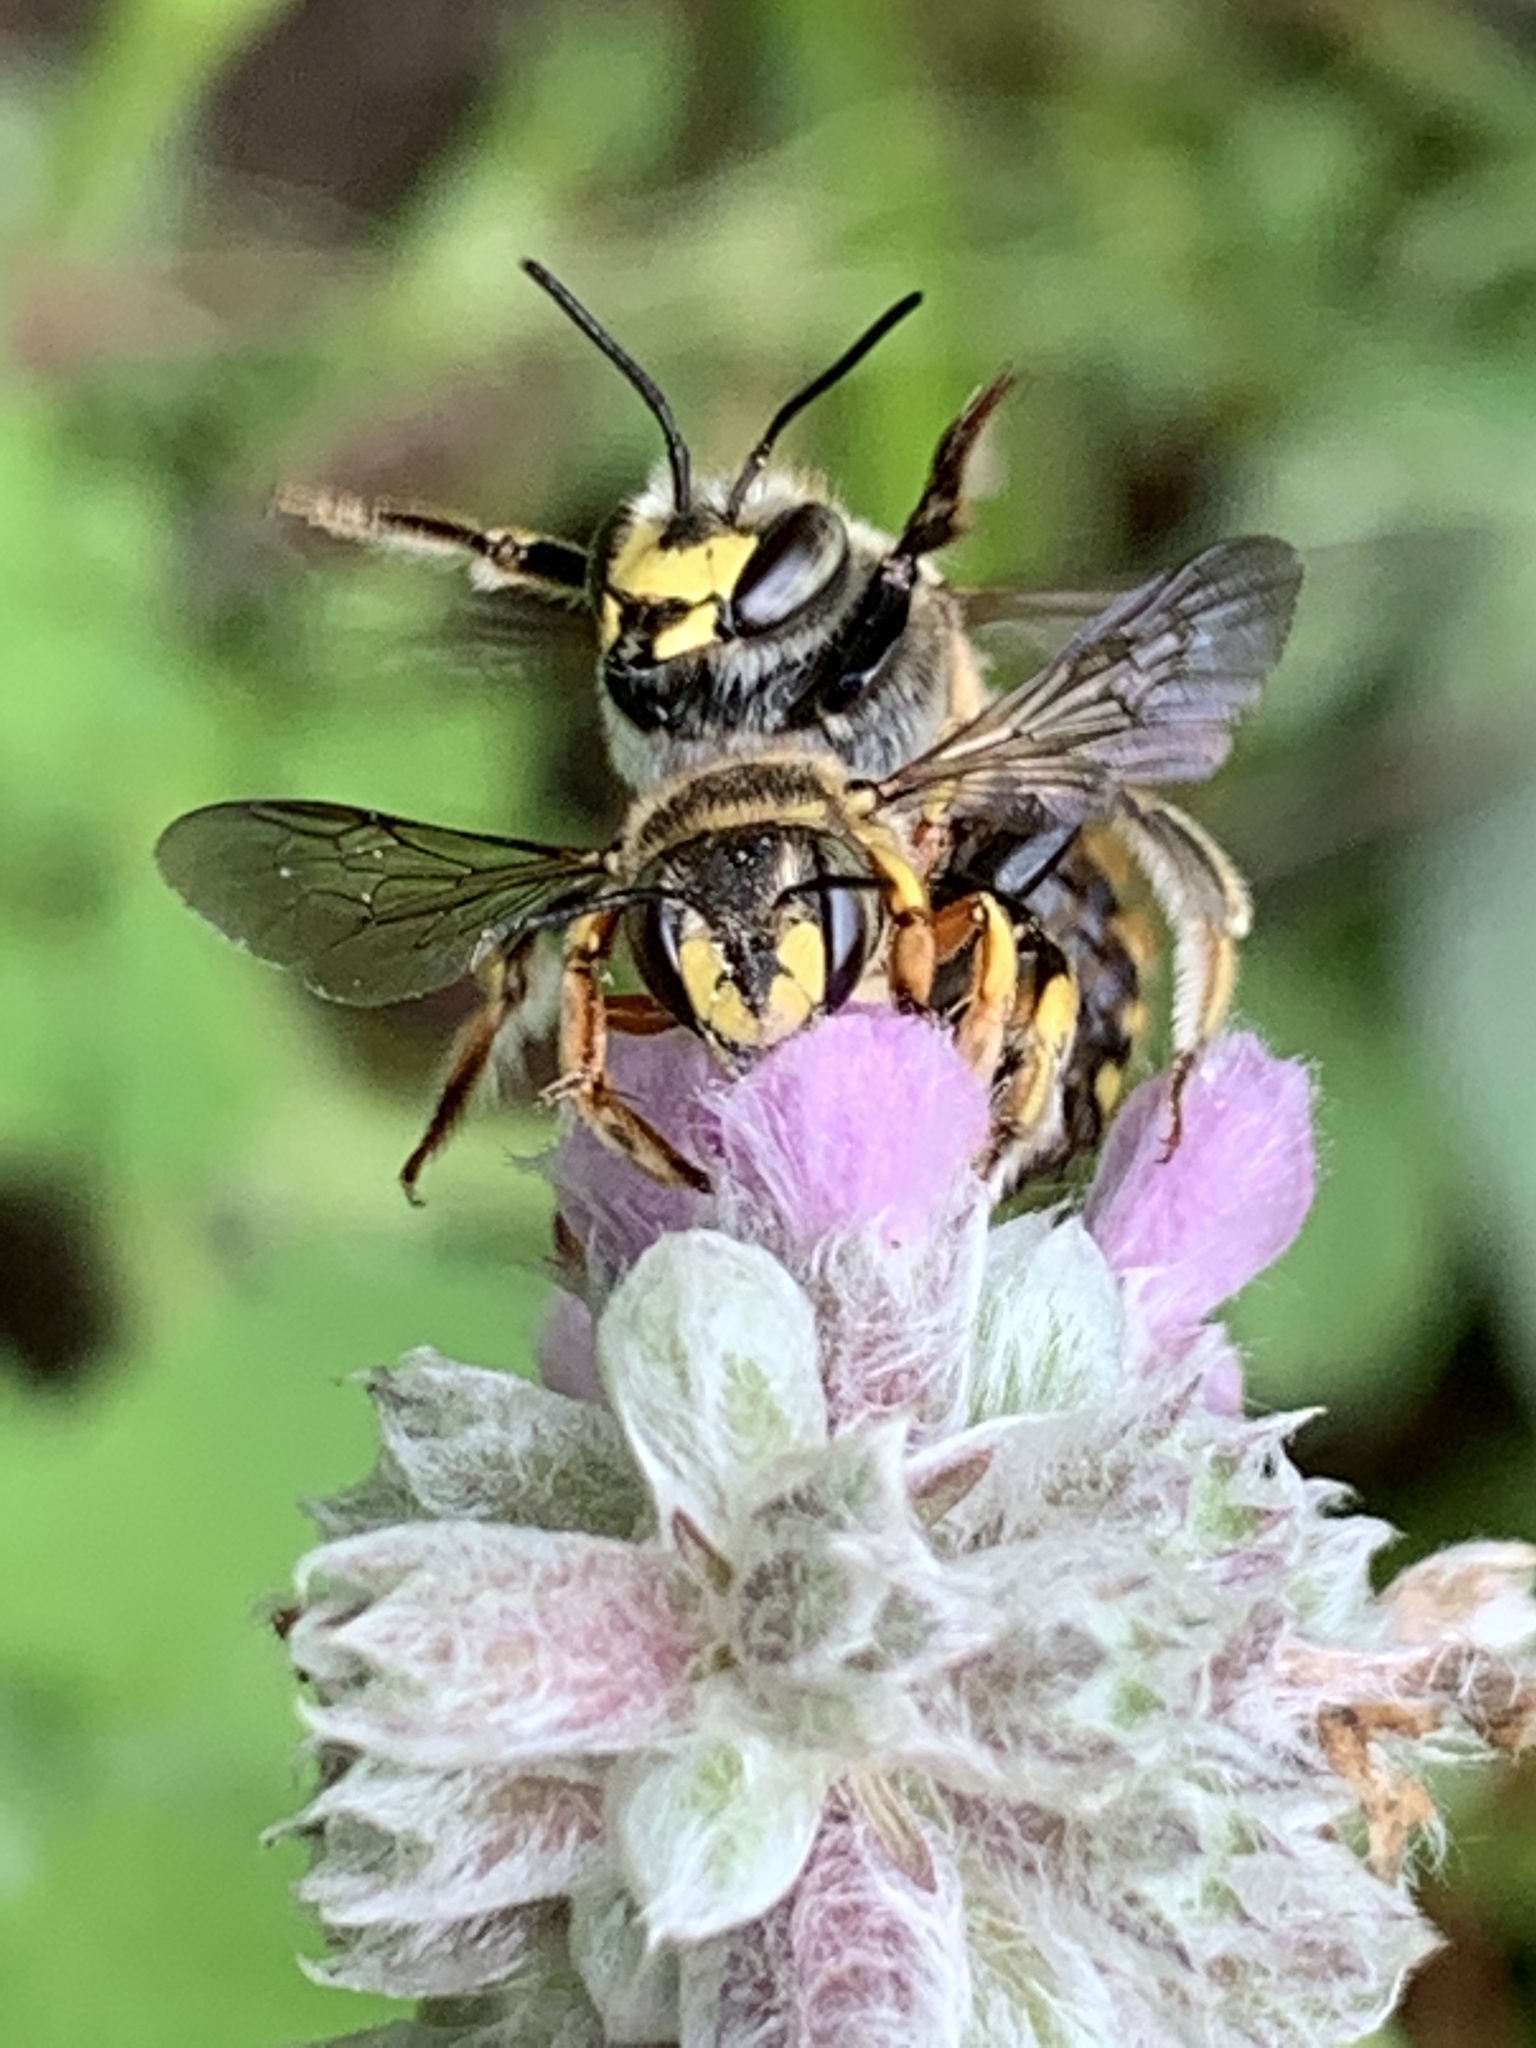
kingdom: Animalia
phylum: Arthropoda
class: Insecta
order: Hymenoptera
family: Megachilidae
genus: Anthidium
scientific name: Anthidium manicatum
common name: Wool carder bee
